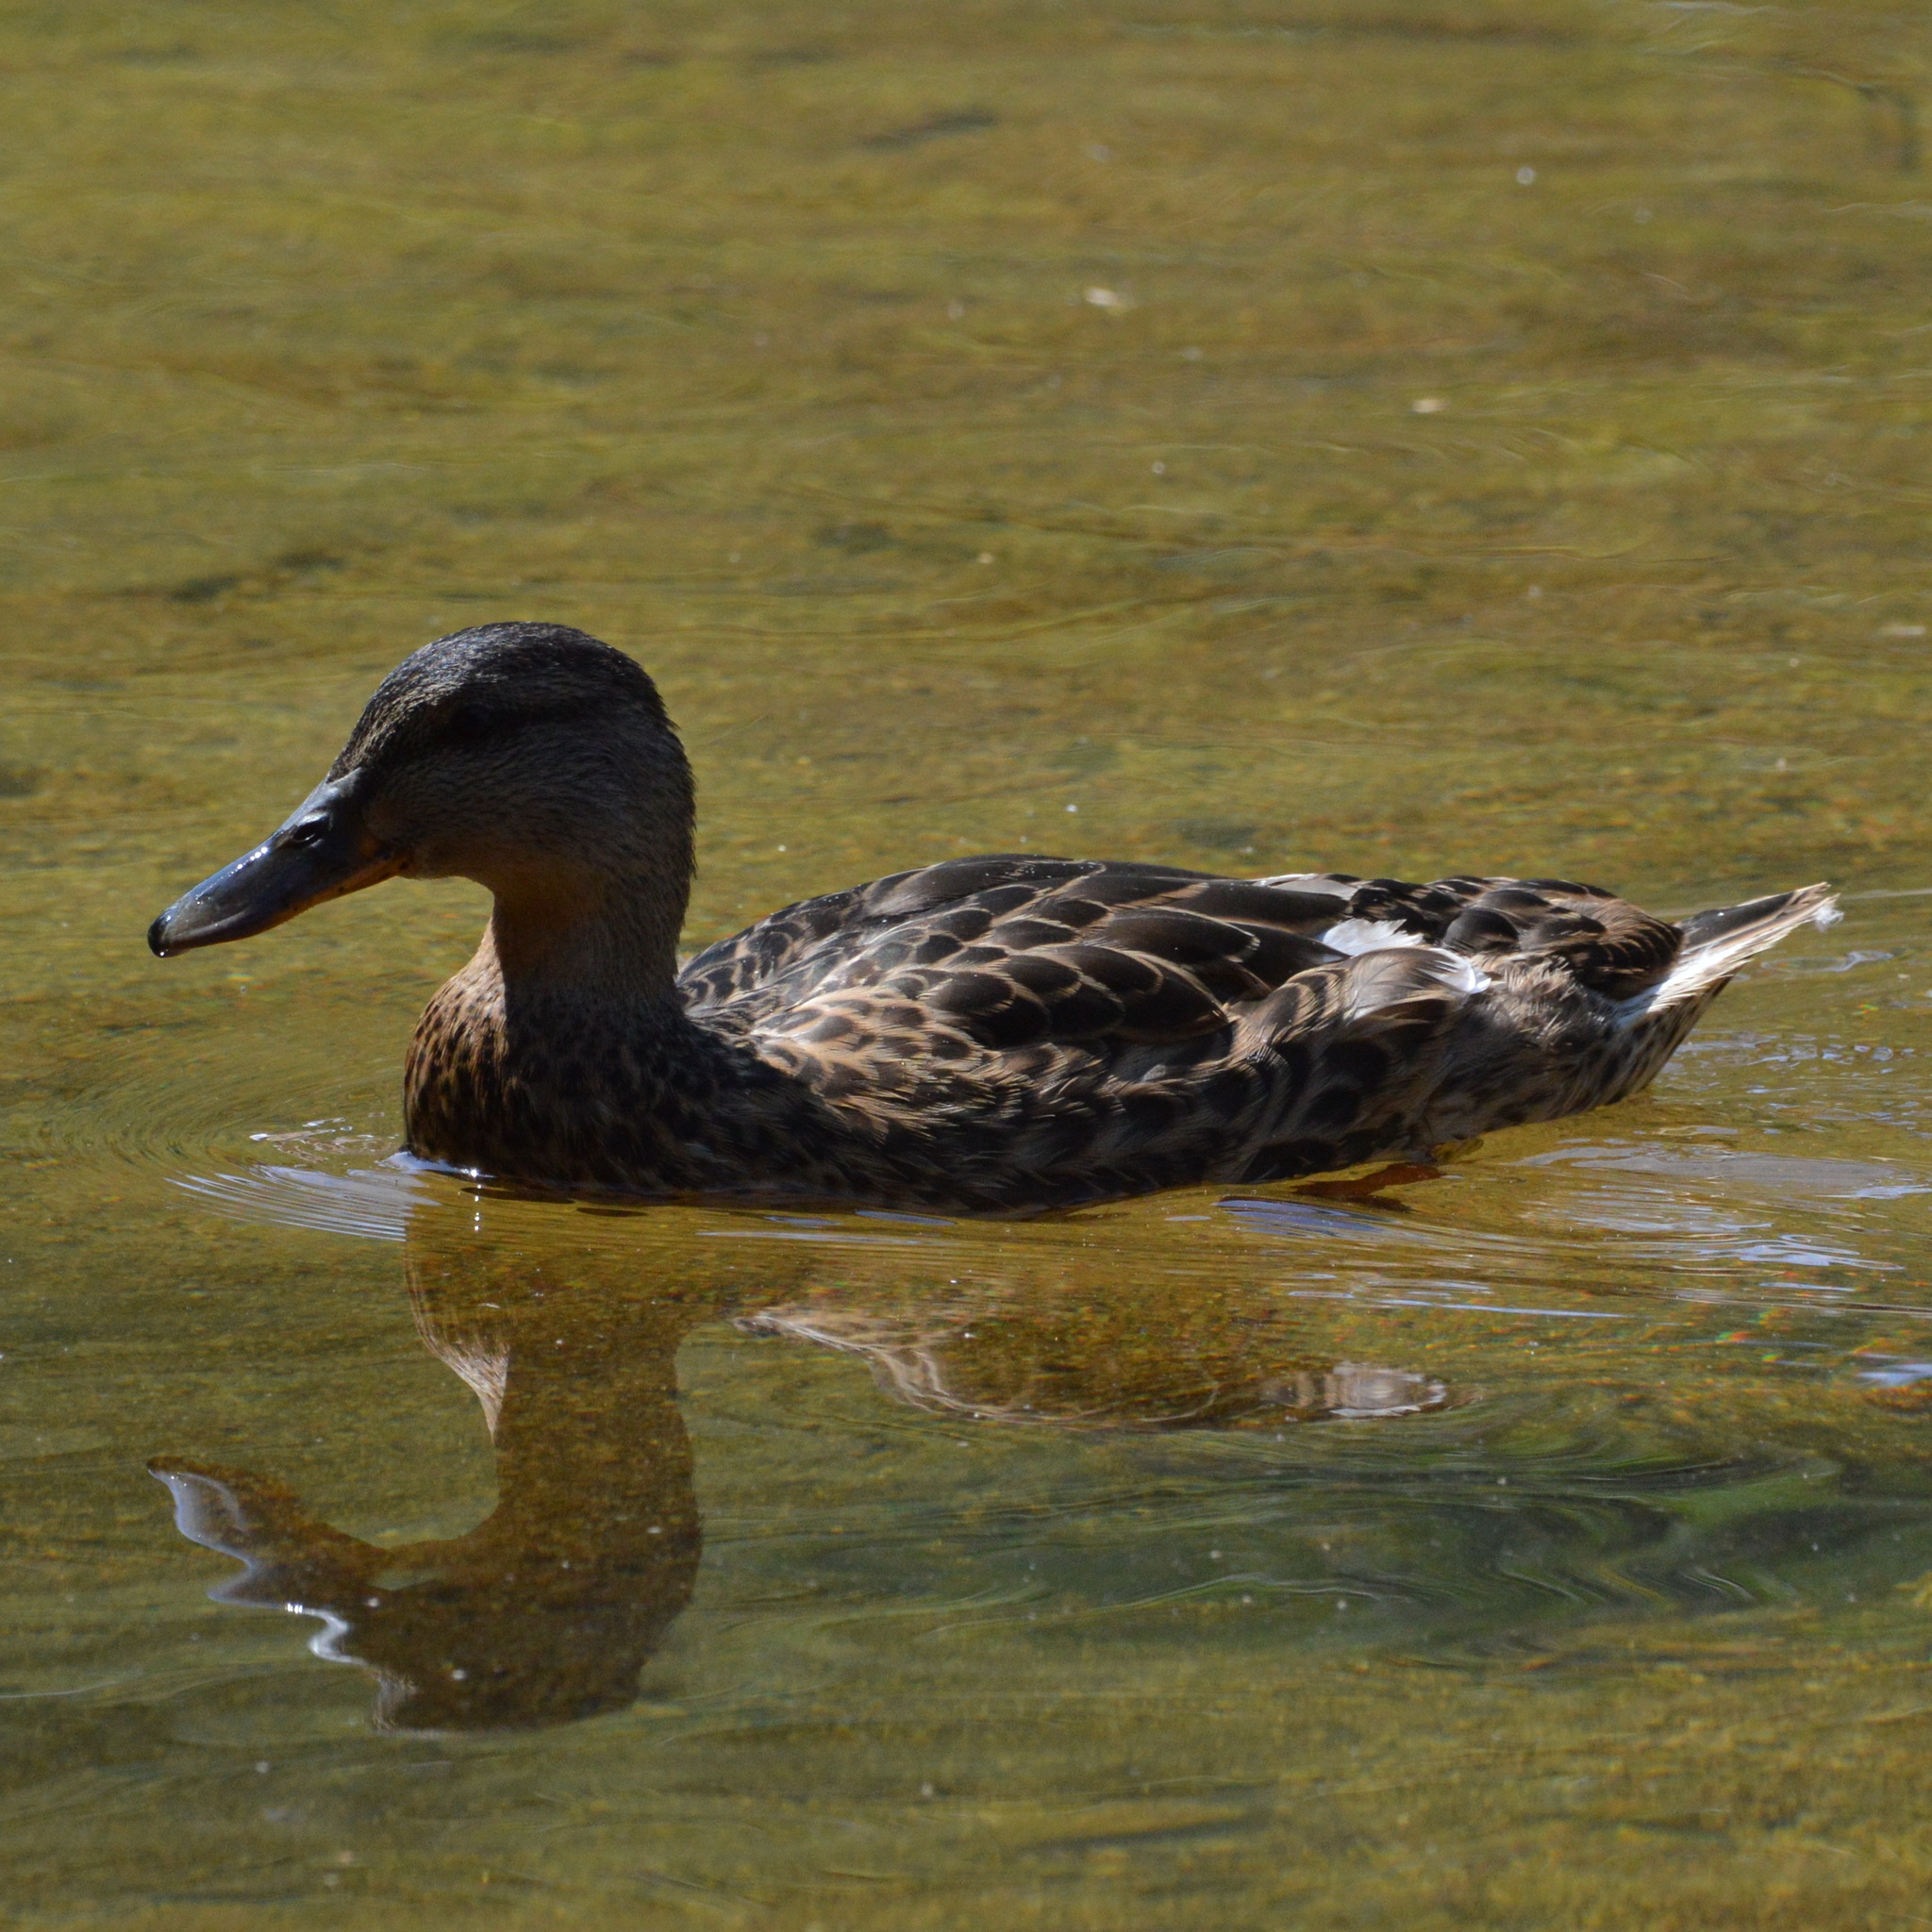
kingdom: Animalia
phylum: Chordata
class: Aves
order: Anseriformes
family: Anatidae
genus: Anas
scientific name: Anas platyrhynchos
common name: Mallard
